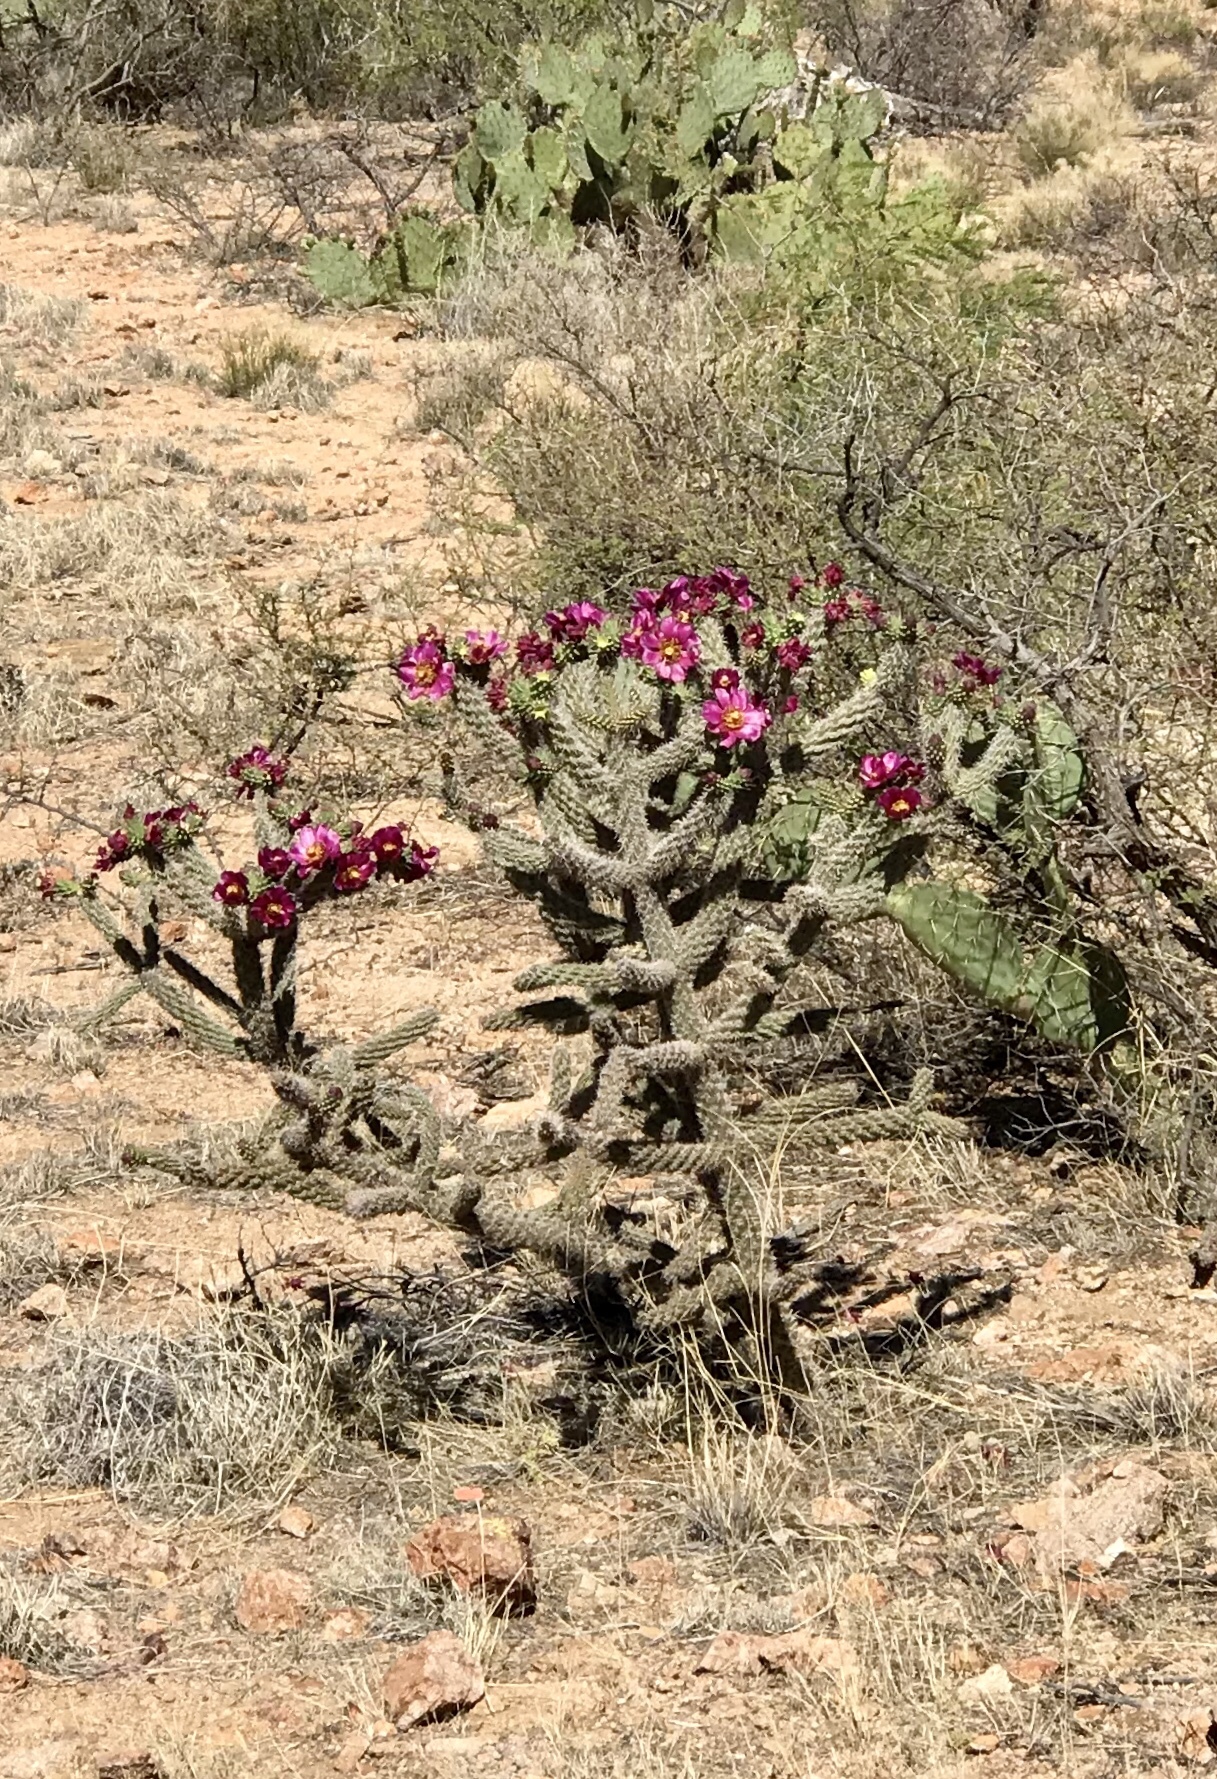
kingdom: Plantae
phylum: Tracheophyta
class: Magnoliopsida
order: Caryophyllales
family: Cactaceae
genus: Cylindropuntia
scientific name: Cylindropuntia imbricata
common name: Candelabrum cactus
